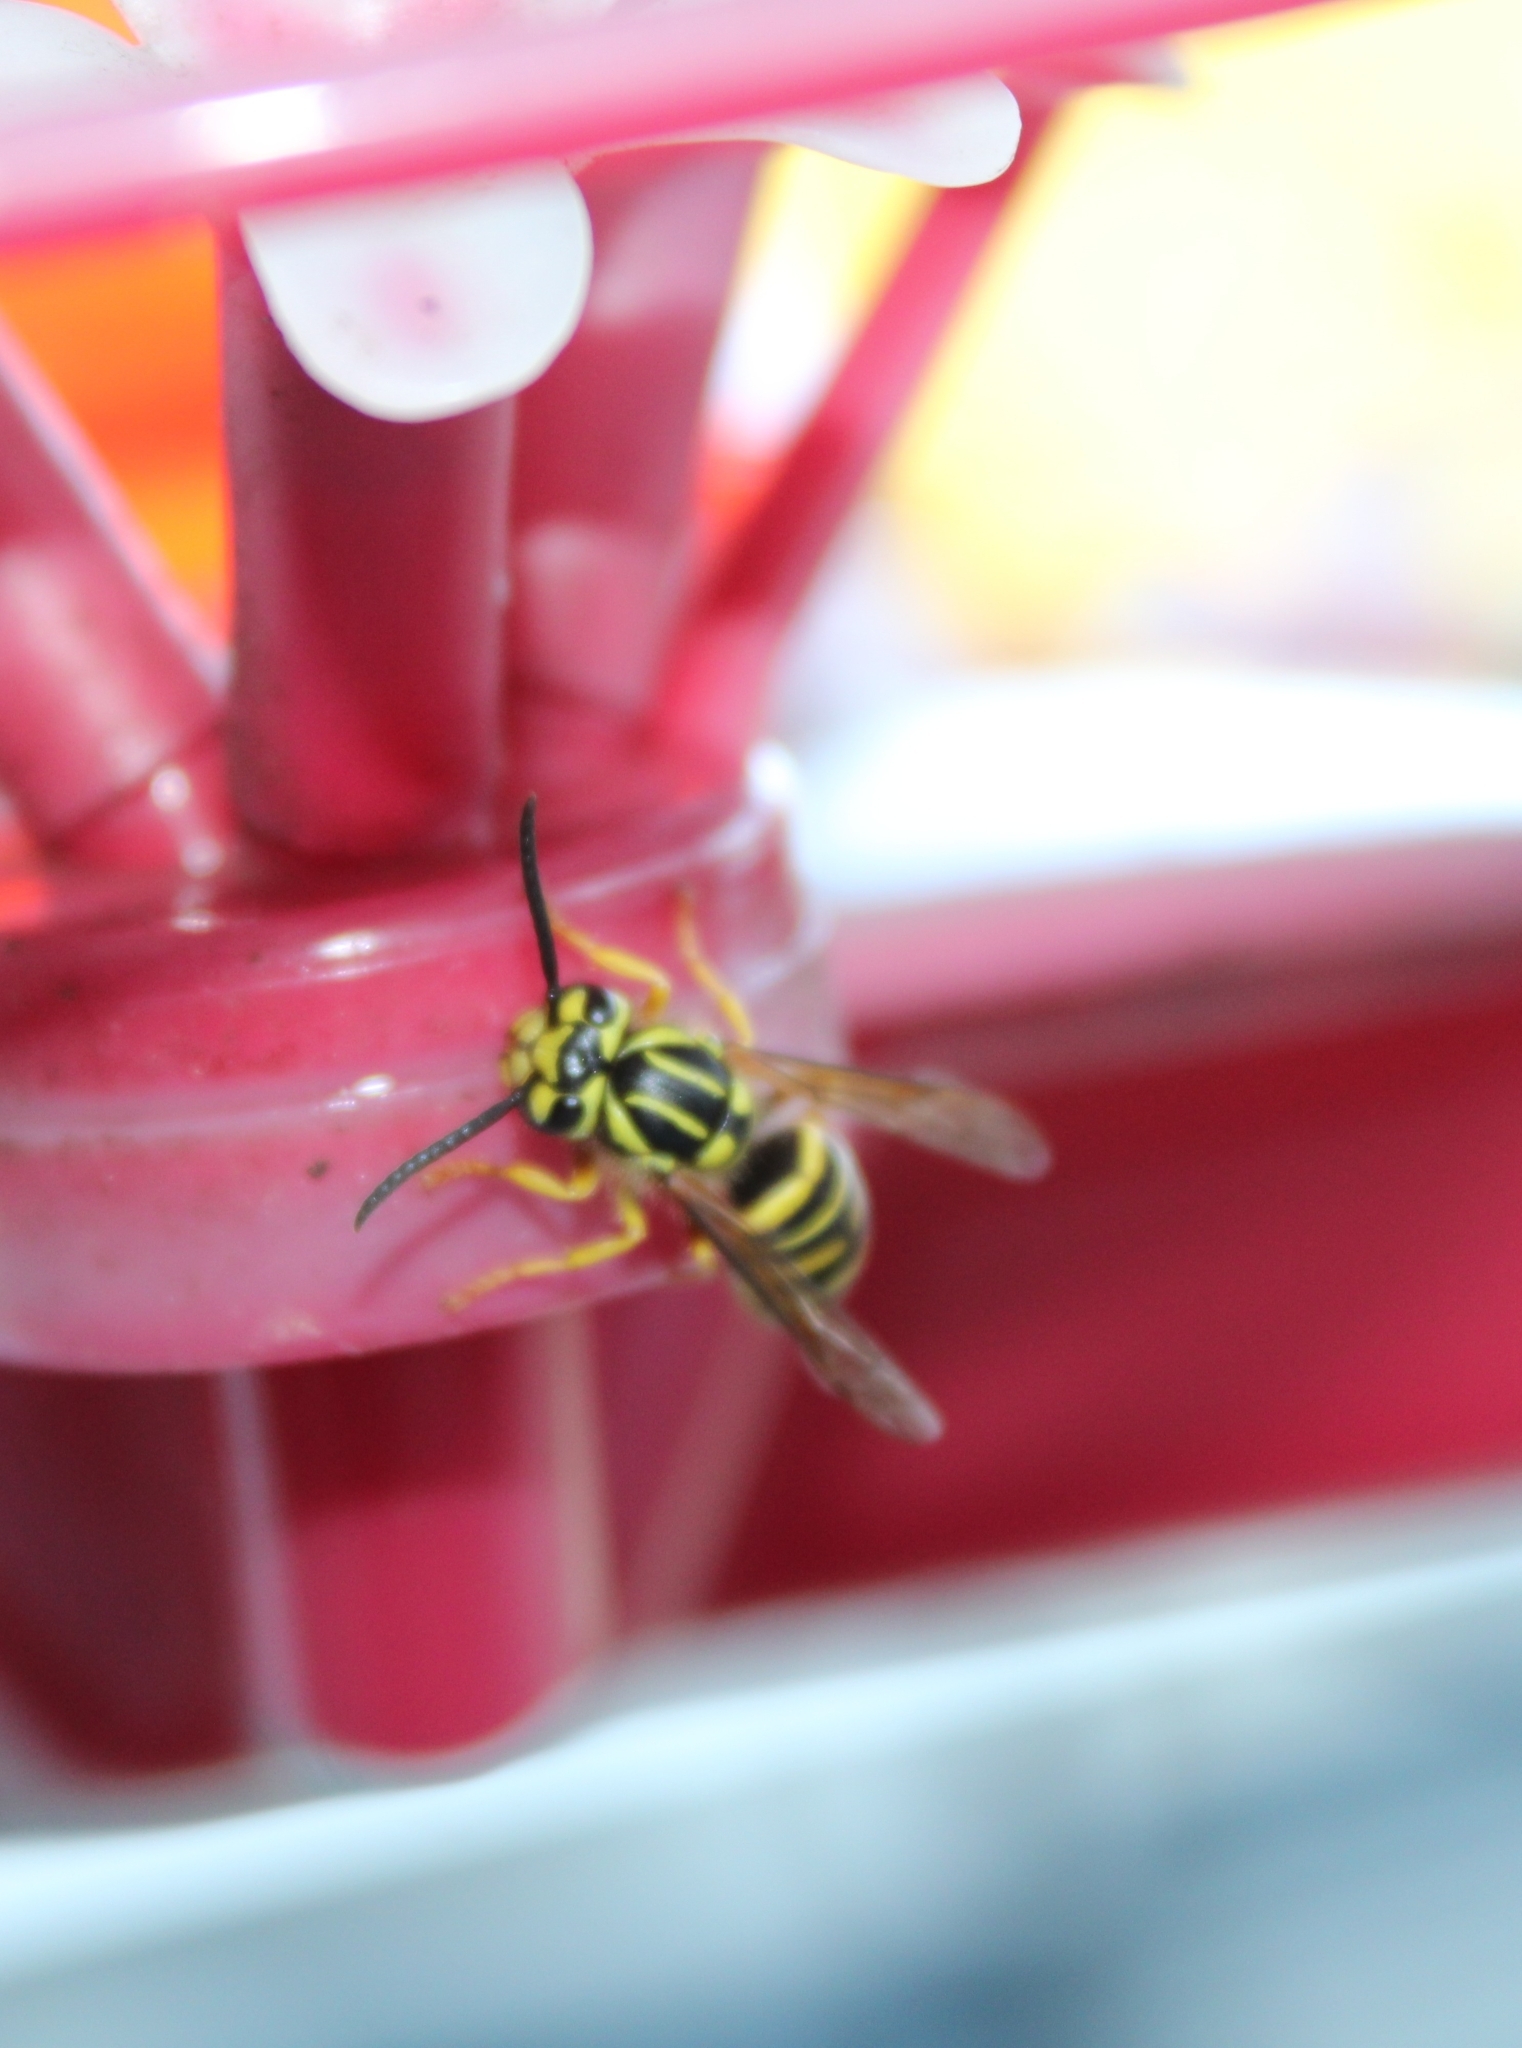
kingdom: Animalia
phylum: Arthropoda
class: Insecta
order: Hymenoptera
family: Vespidae
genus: Vespula
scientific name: Vespula squamosa
